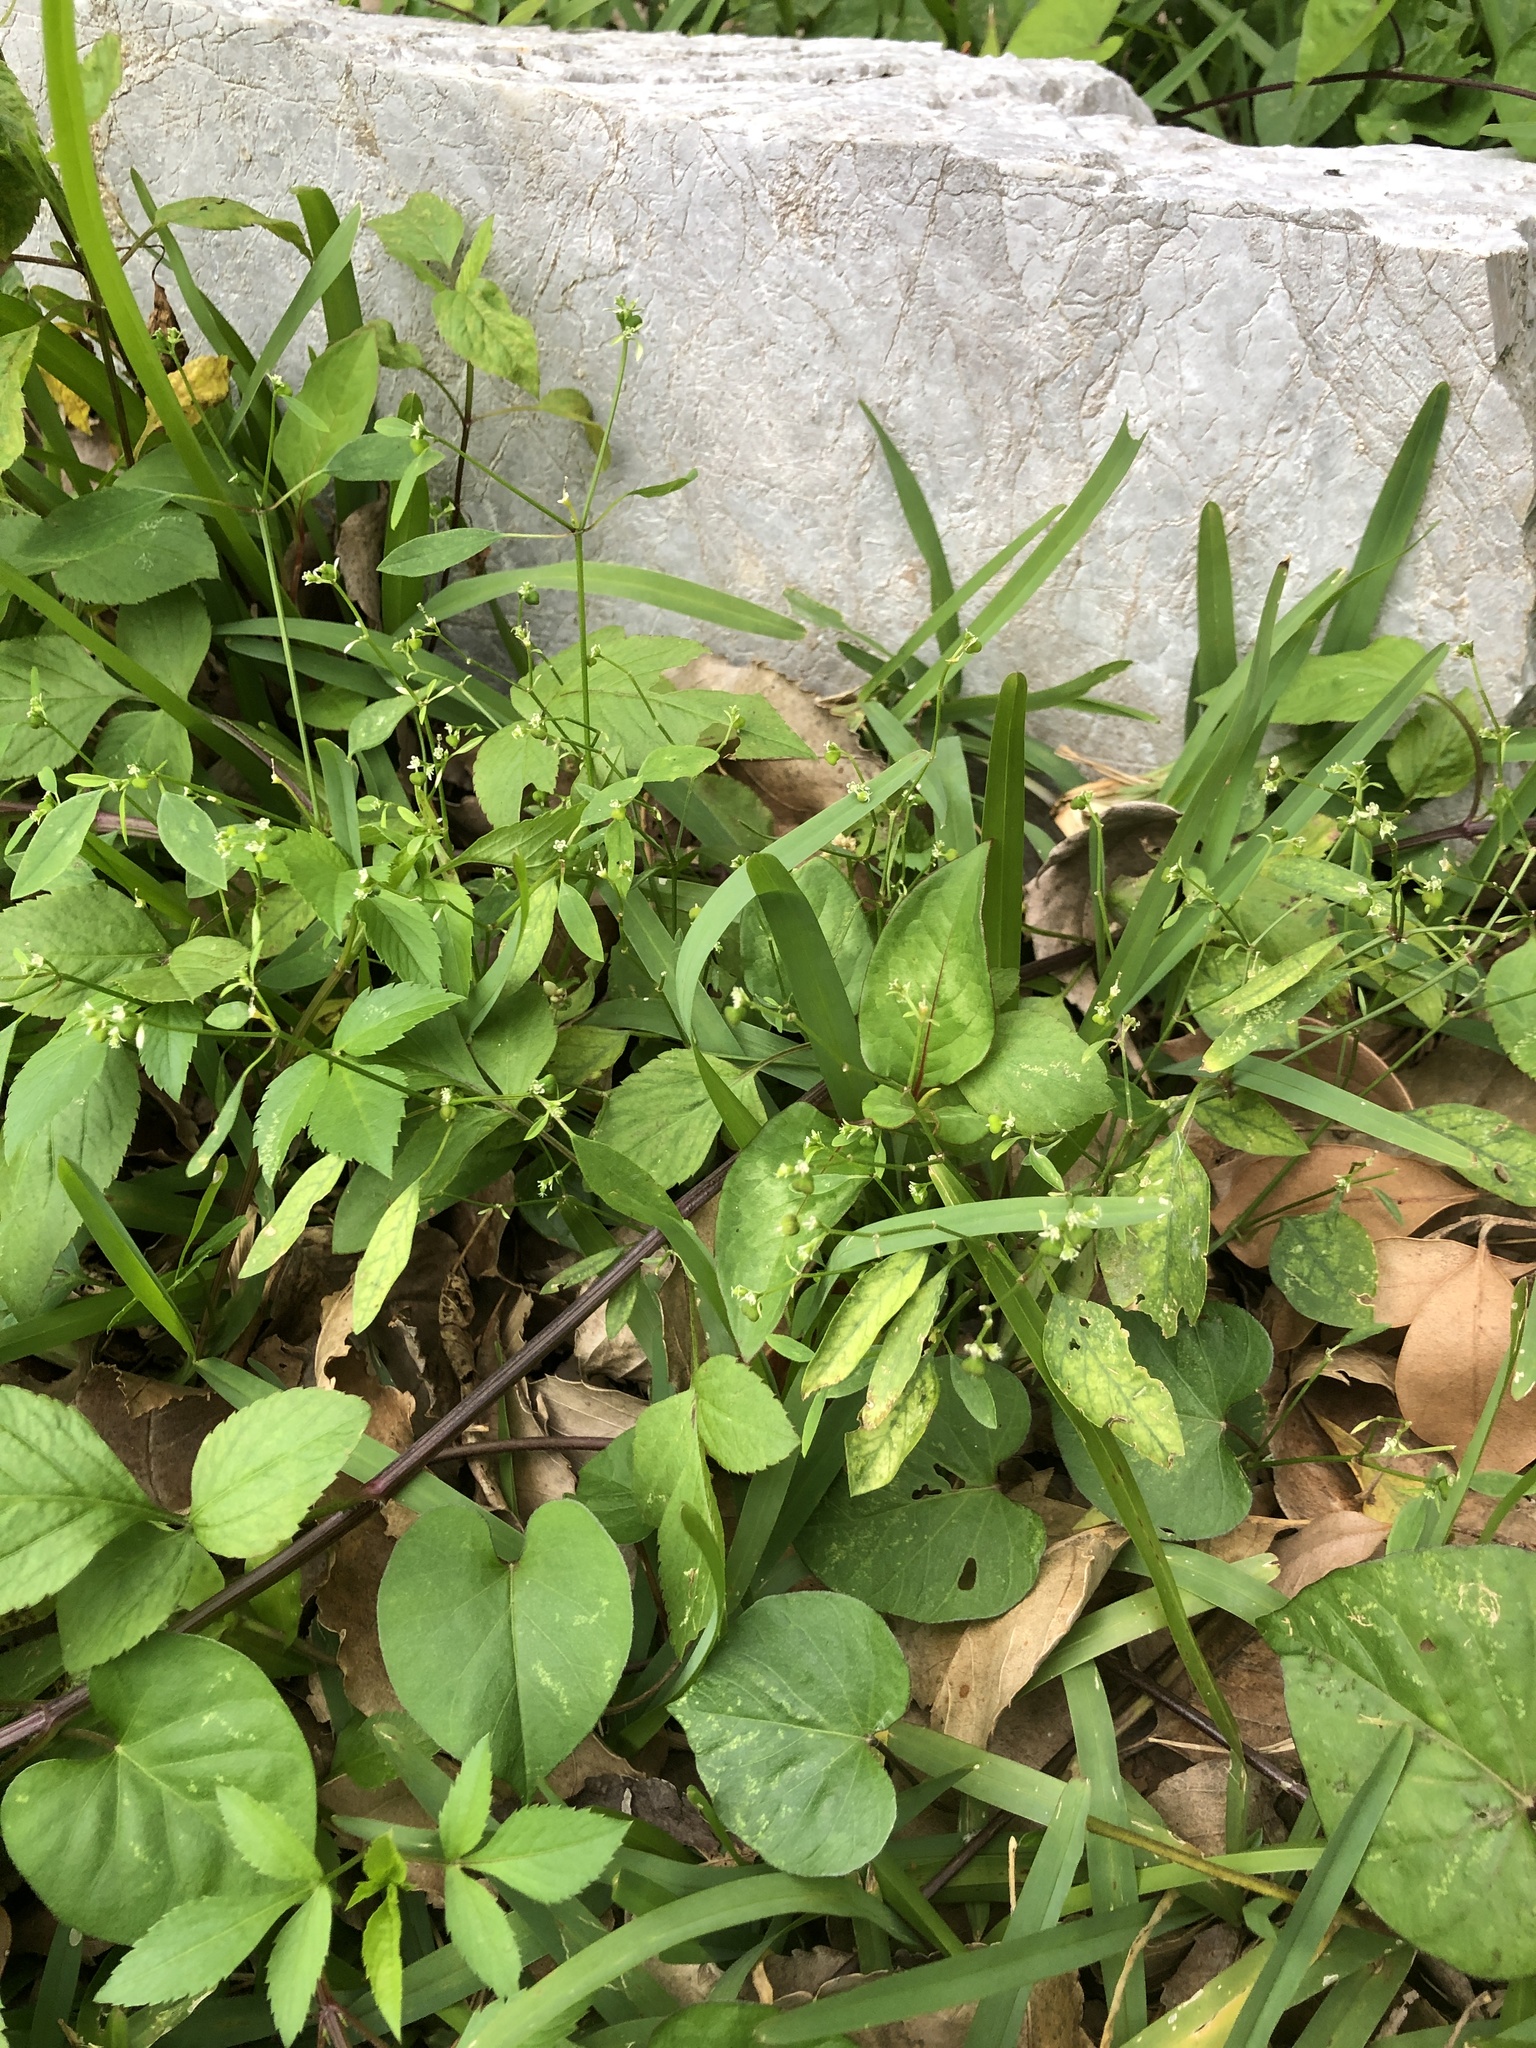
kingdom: Plantae
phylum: Tracheophyta
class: Magnoliopsida
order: Malpighiales
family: Euphorbiaceae
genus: Euphorbia
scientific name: Euphorbia graminea
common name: Grassleaf spurge
